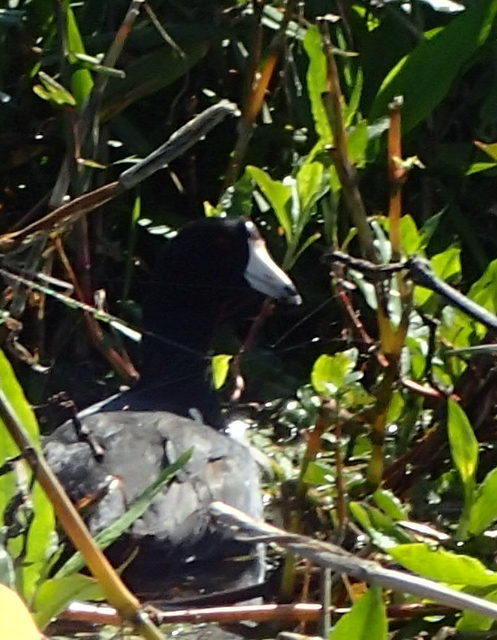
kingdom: Animalia
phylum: Chordata
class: Aves
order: Gruiformes
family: Rallidae
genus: Fulica
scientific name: Fulica americana
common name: American coot
